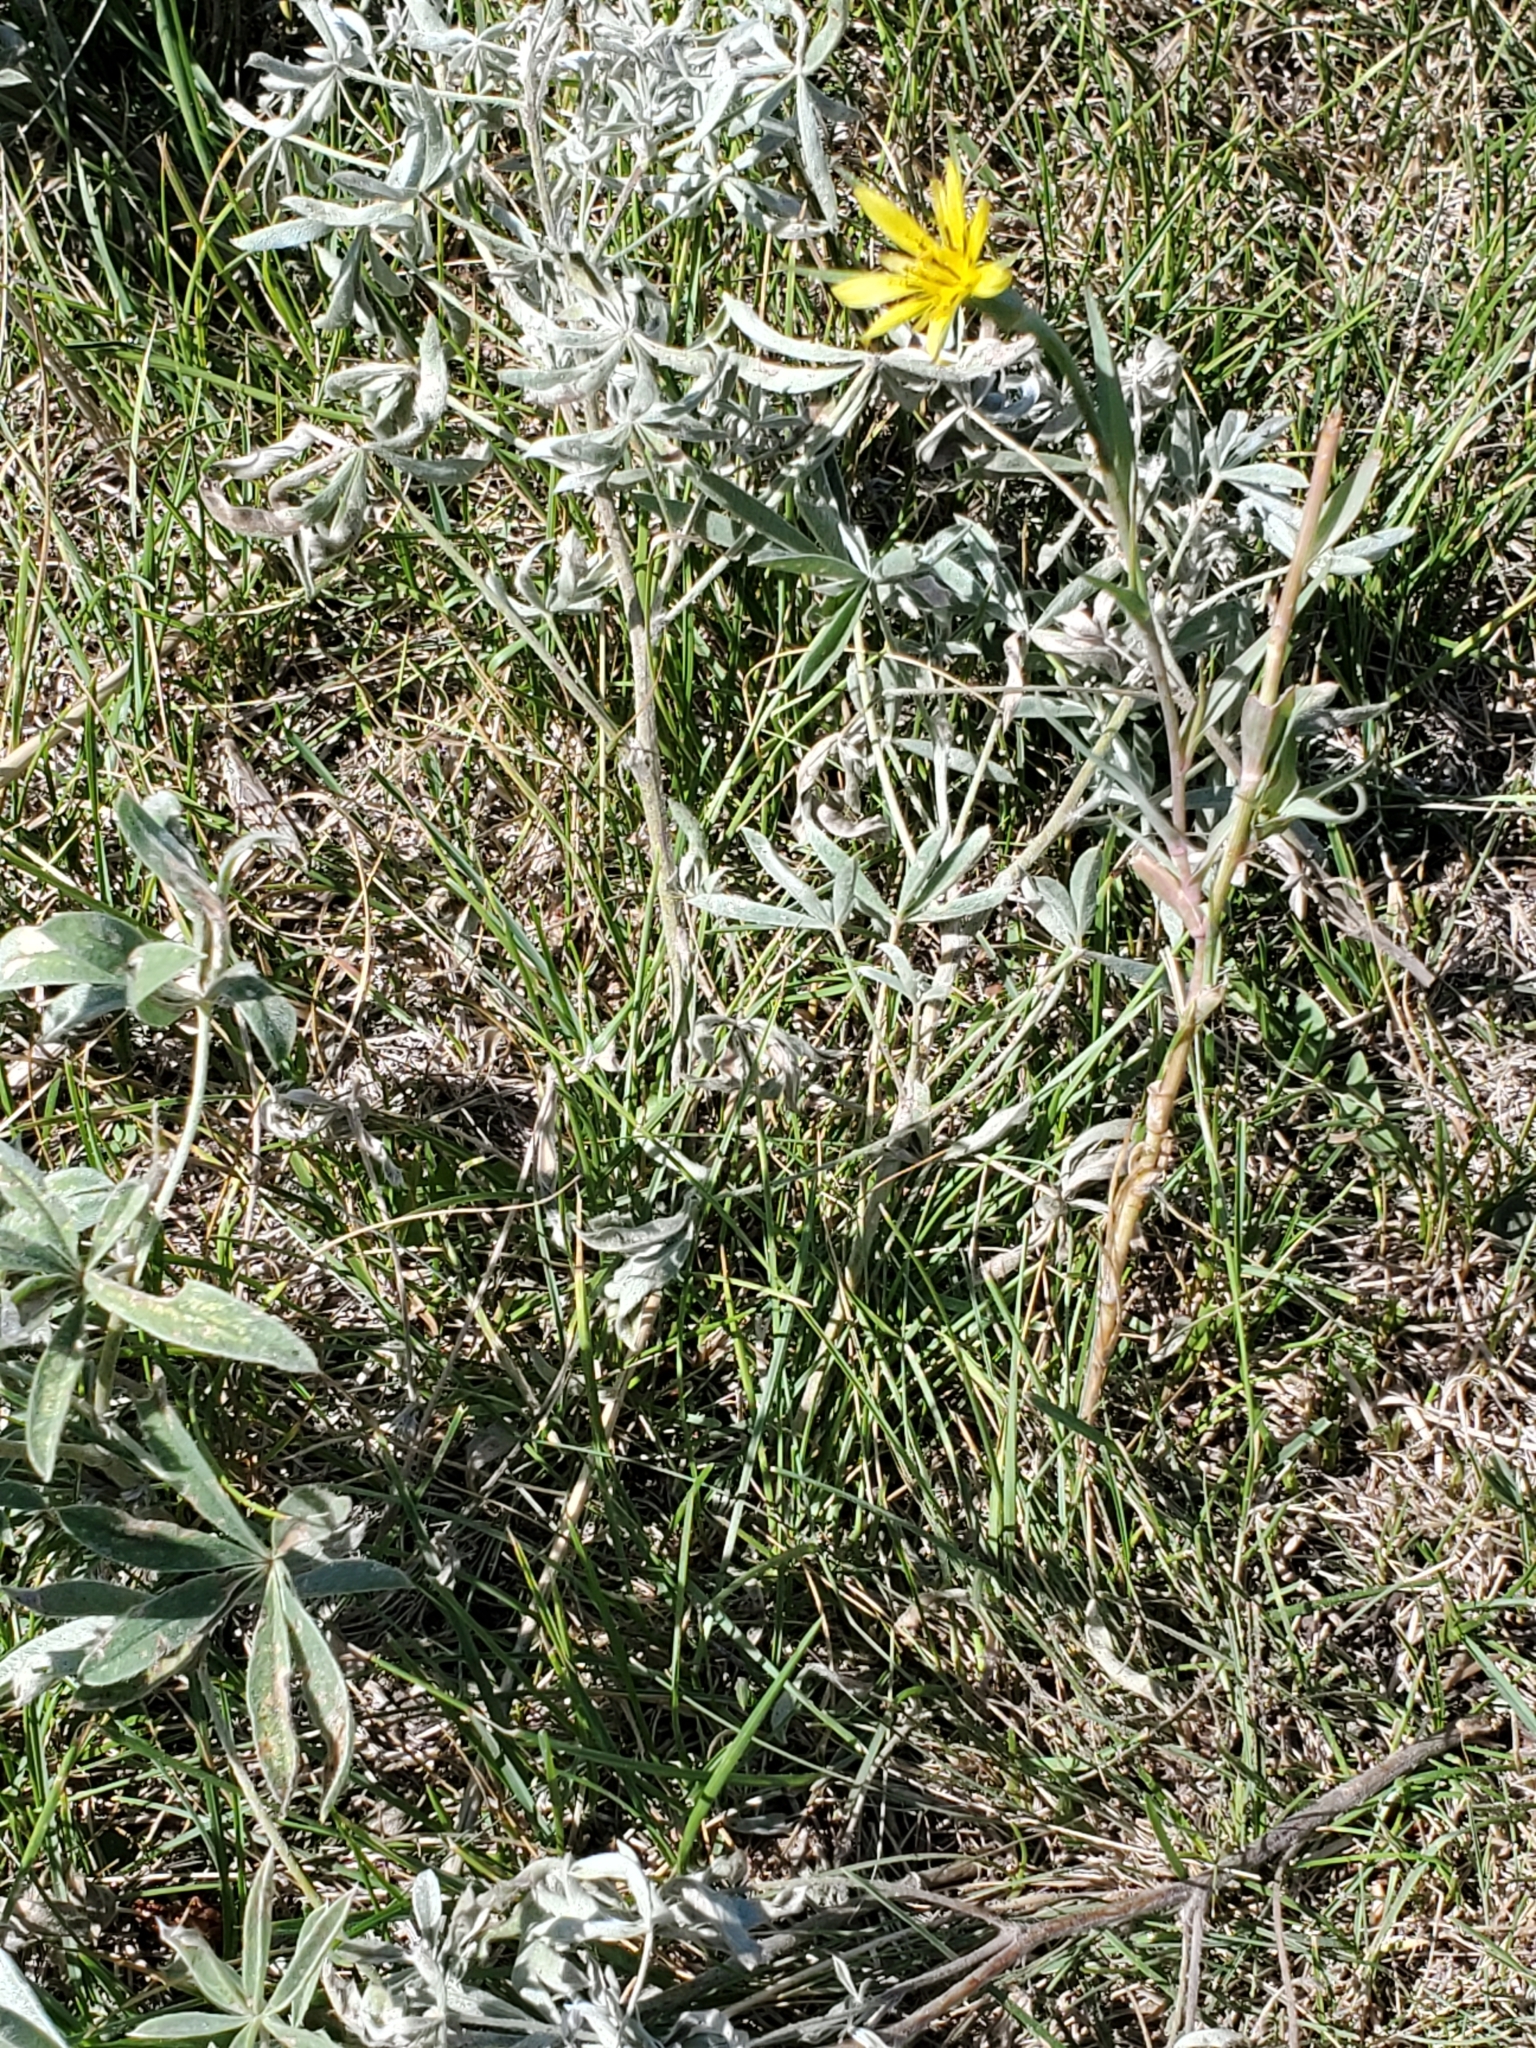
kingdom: Plantae
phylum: Tracheophyta
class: Magnoliopsida
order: Asterales
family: Asteraceae
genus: Tragopogon
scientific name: Tragopogon dubius
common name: Yellow salsify
